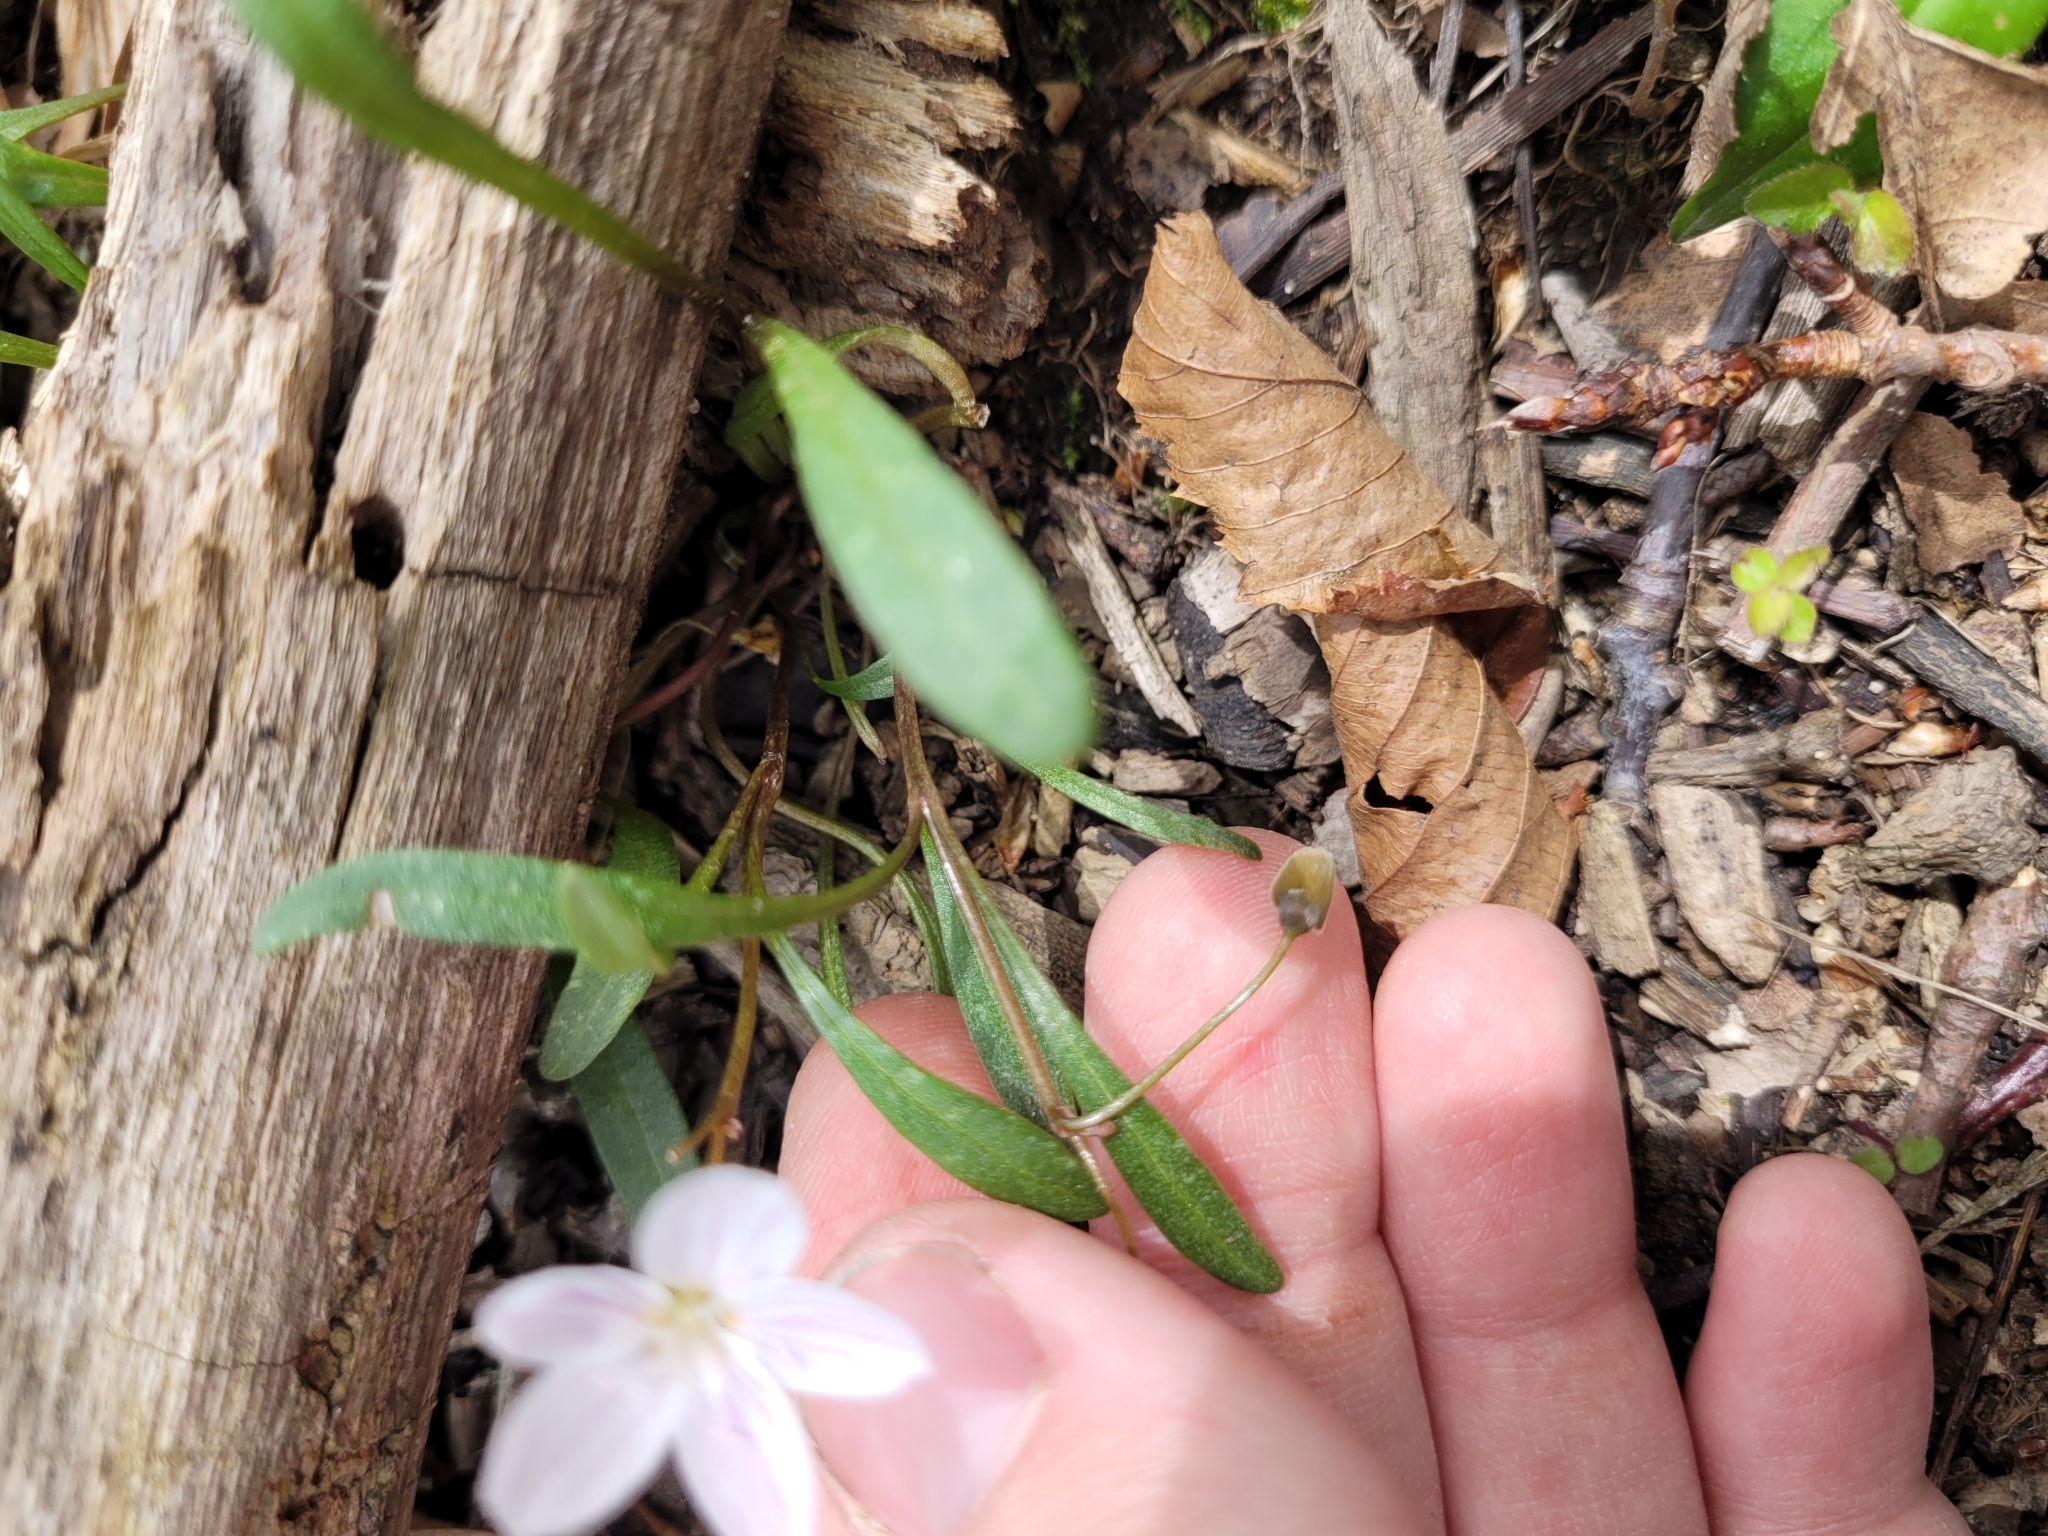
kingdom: Plantae
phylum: Tracheophyta
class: Magnoliopsida
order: Caryophyllales
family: Montiaceae
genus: Claytonia
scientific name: Claytonia virginica
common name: Virginia springbeauty
